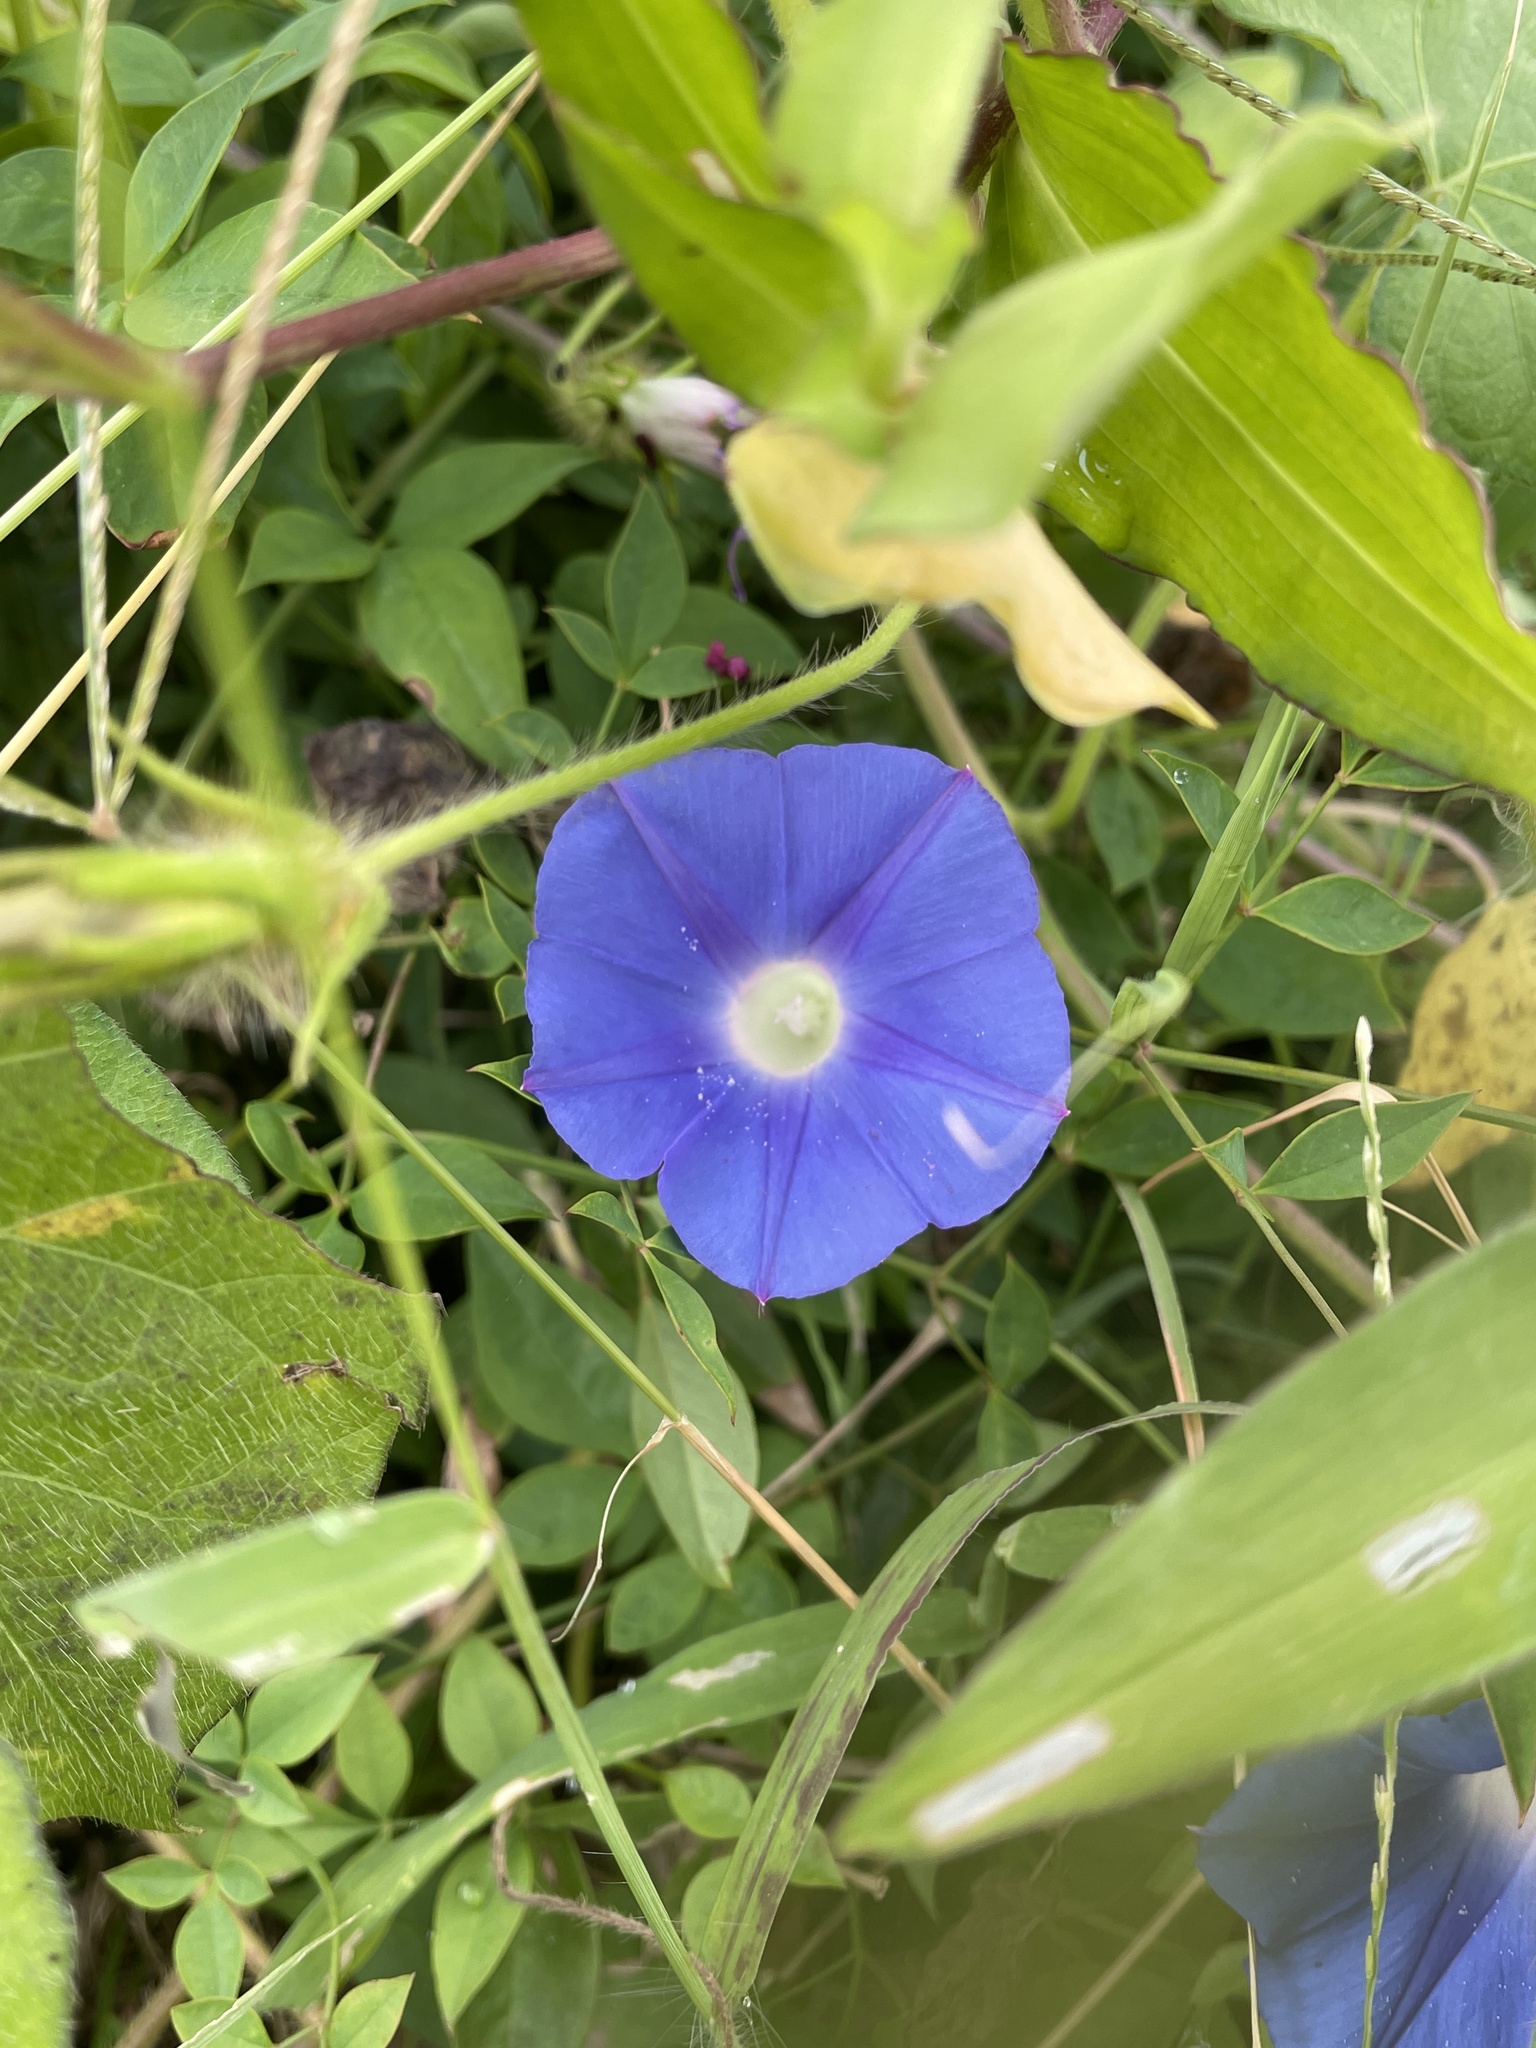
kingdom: Plantae
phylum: Tracheophyta
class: Magnoliopsida
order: Solanales
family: Convolvulaceae
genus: Ipomoea
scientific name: Ipomoea hederacea
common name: Ivy-leaved morning-glory
